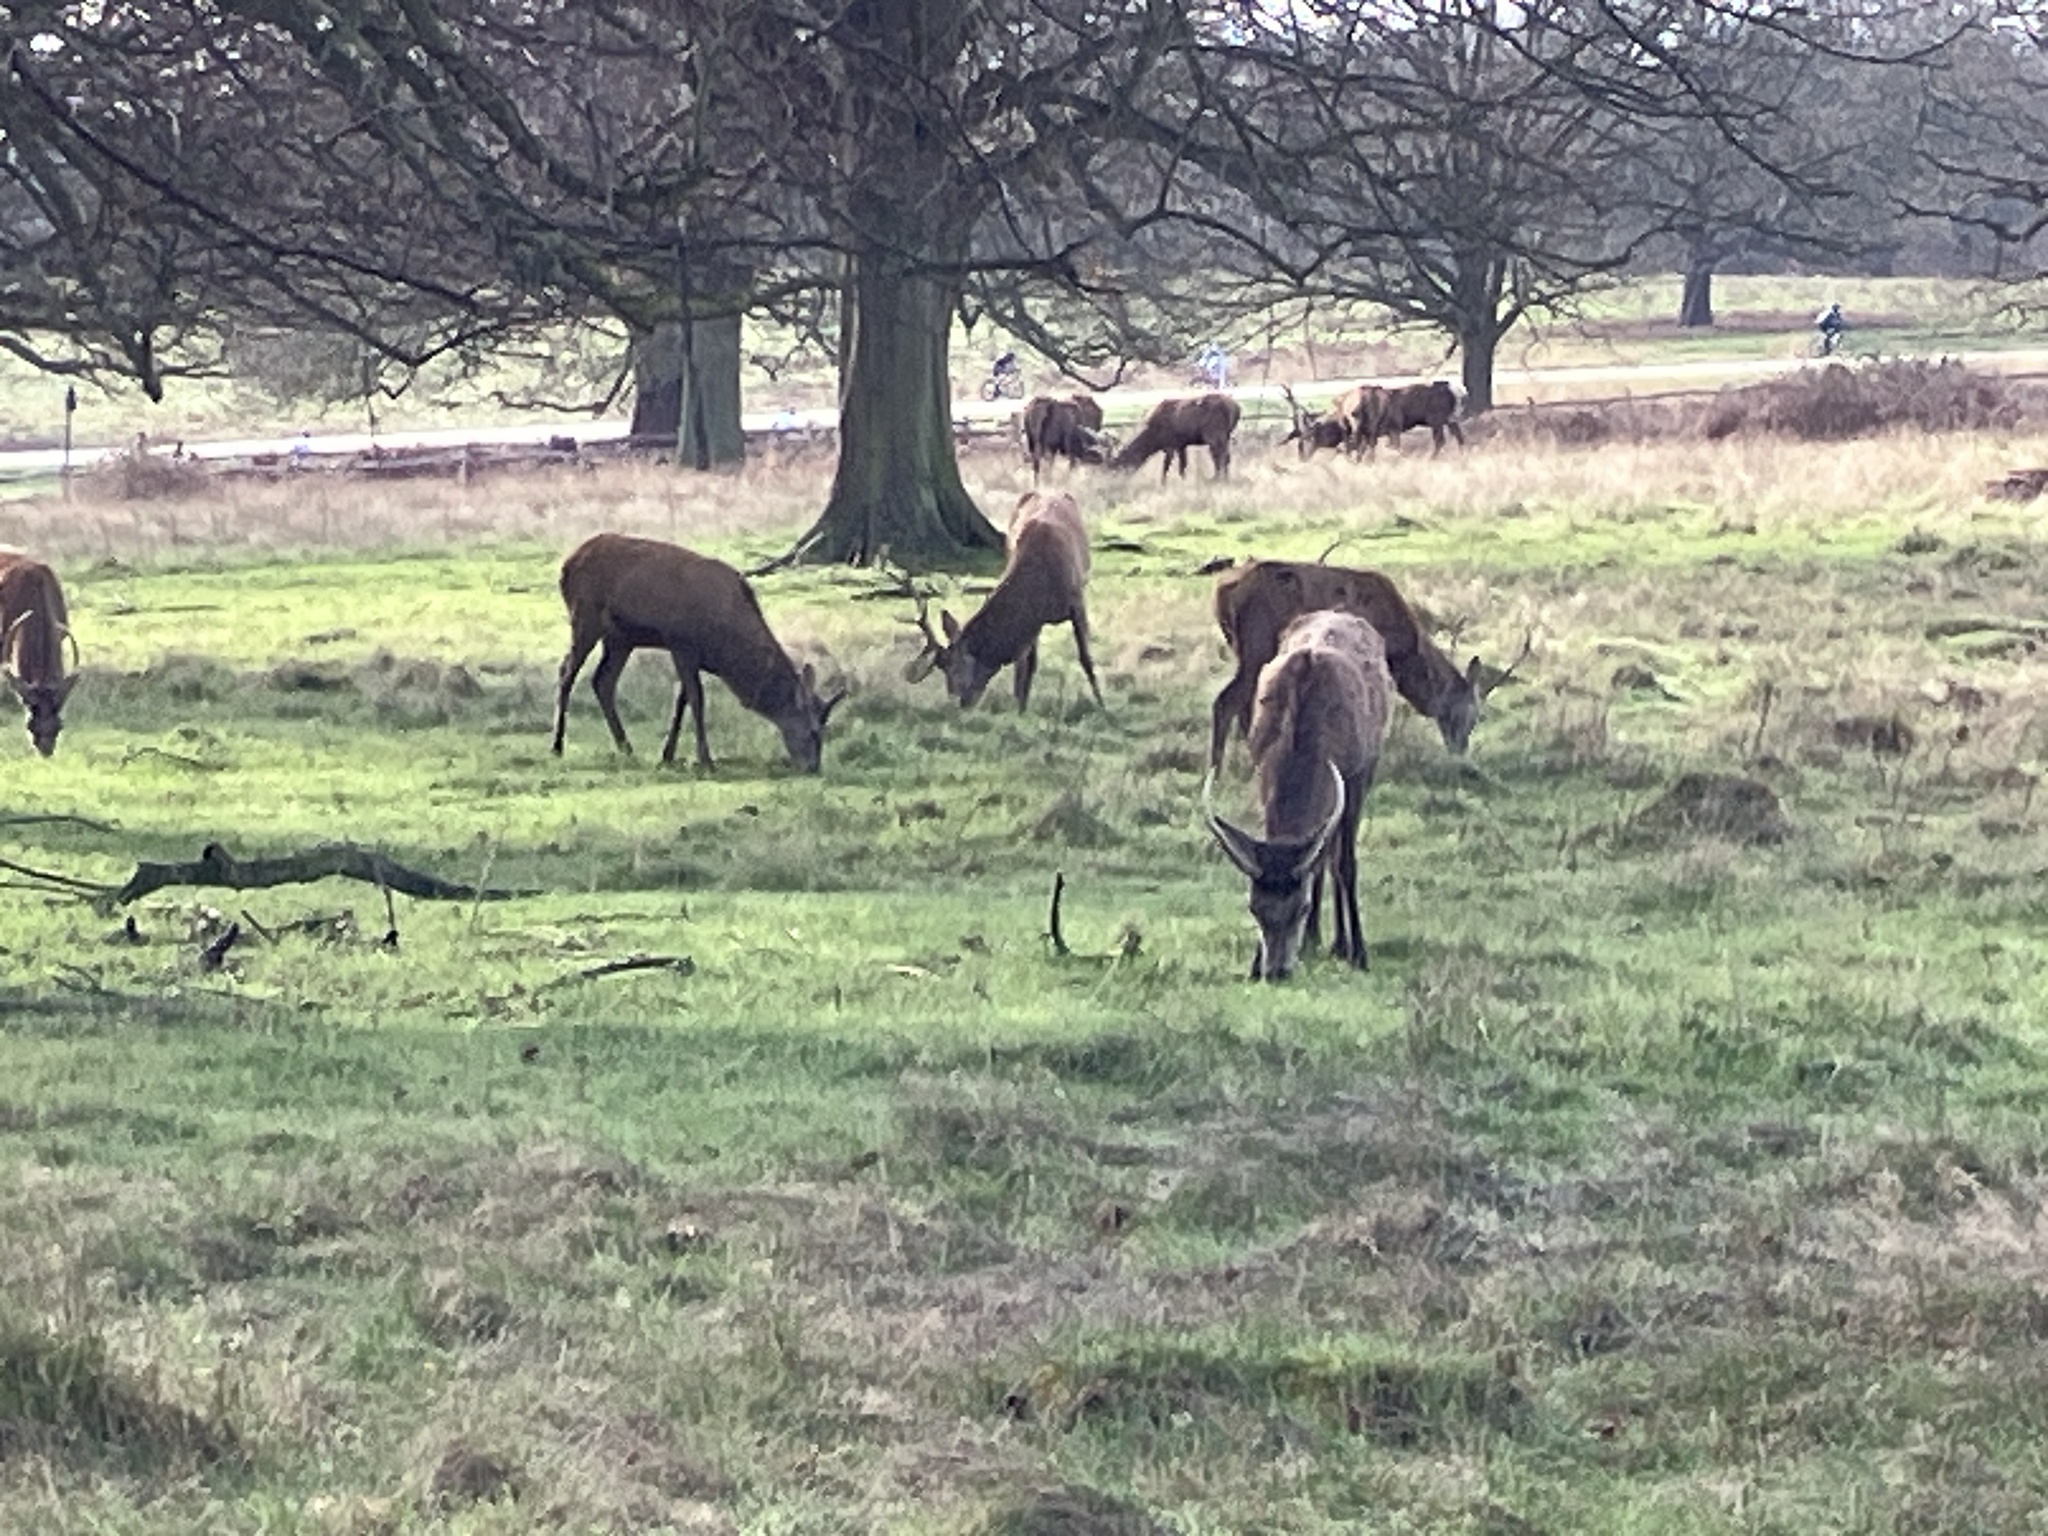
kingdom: Animalia
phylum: Chordata
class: Mammalia
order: Artiodactyla
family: Cervidae
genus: Cervus
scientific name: Cervus elaphus
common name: Red deer
